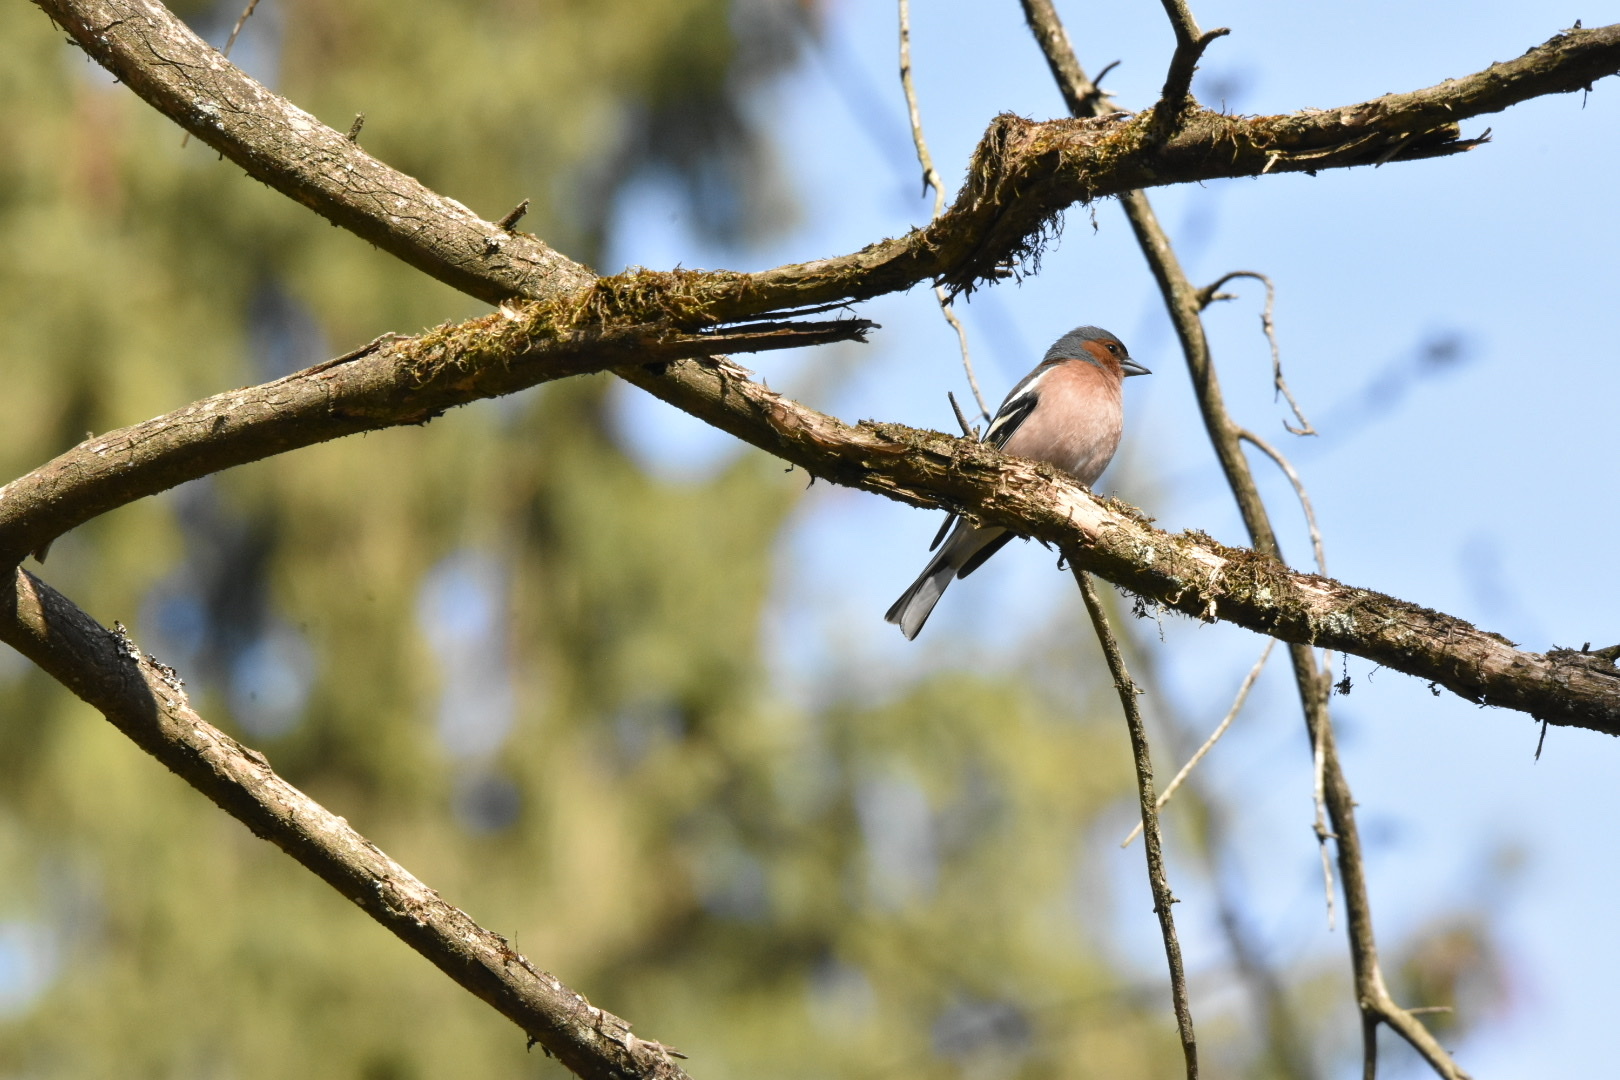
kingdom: Animalia
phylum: Chordata
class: Aves
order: Passeriformes
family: Fringillidae
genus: Fringilla
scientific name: Fringilla coelebs
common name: Common chaffinch
